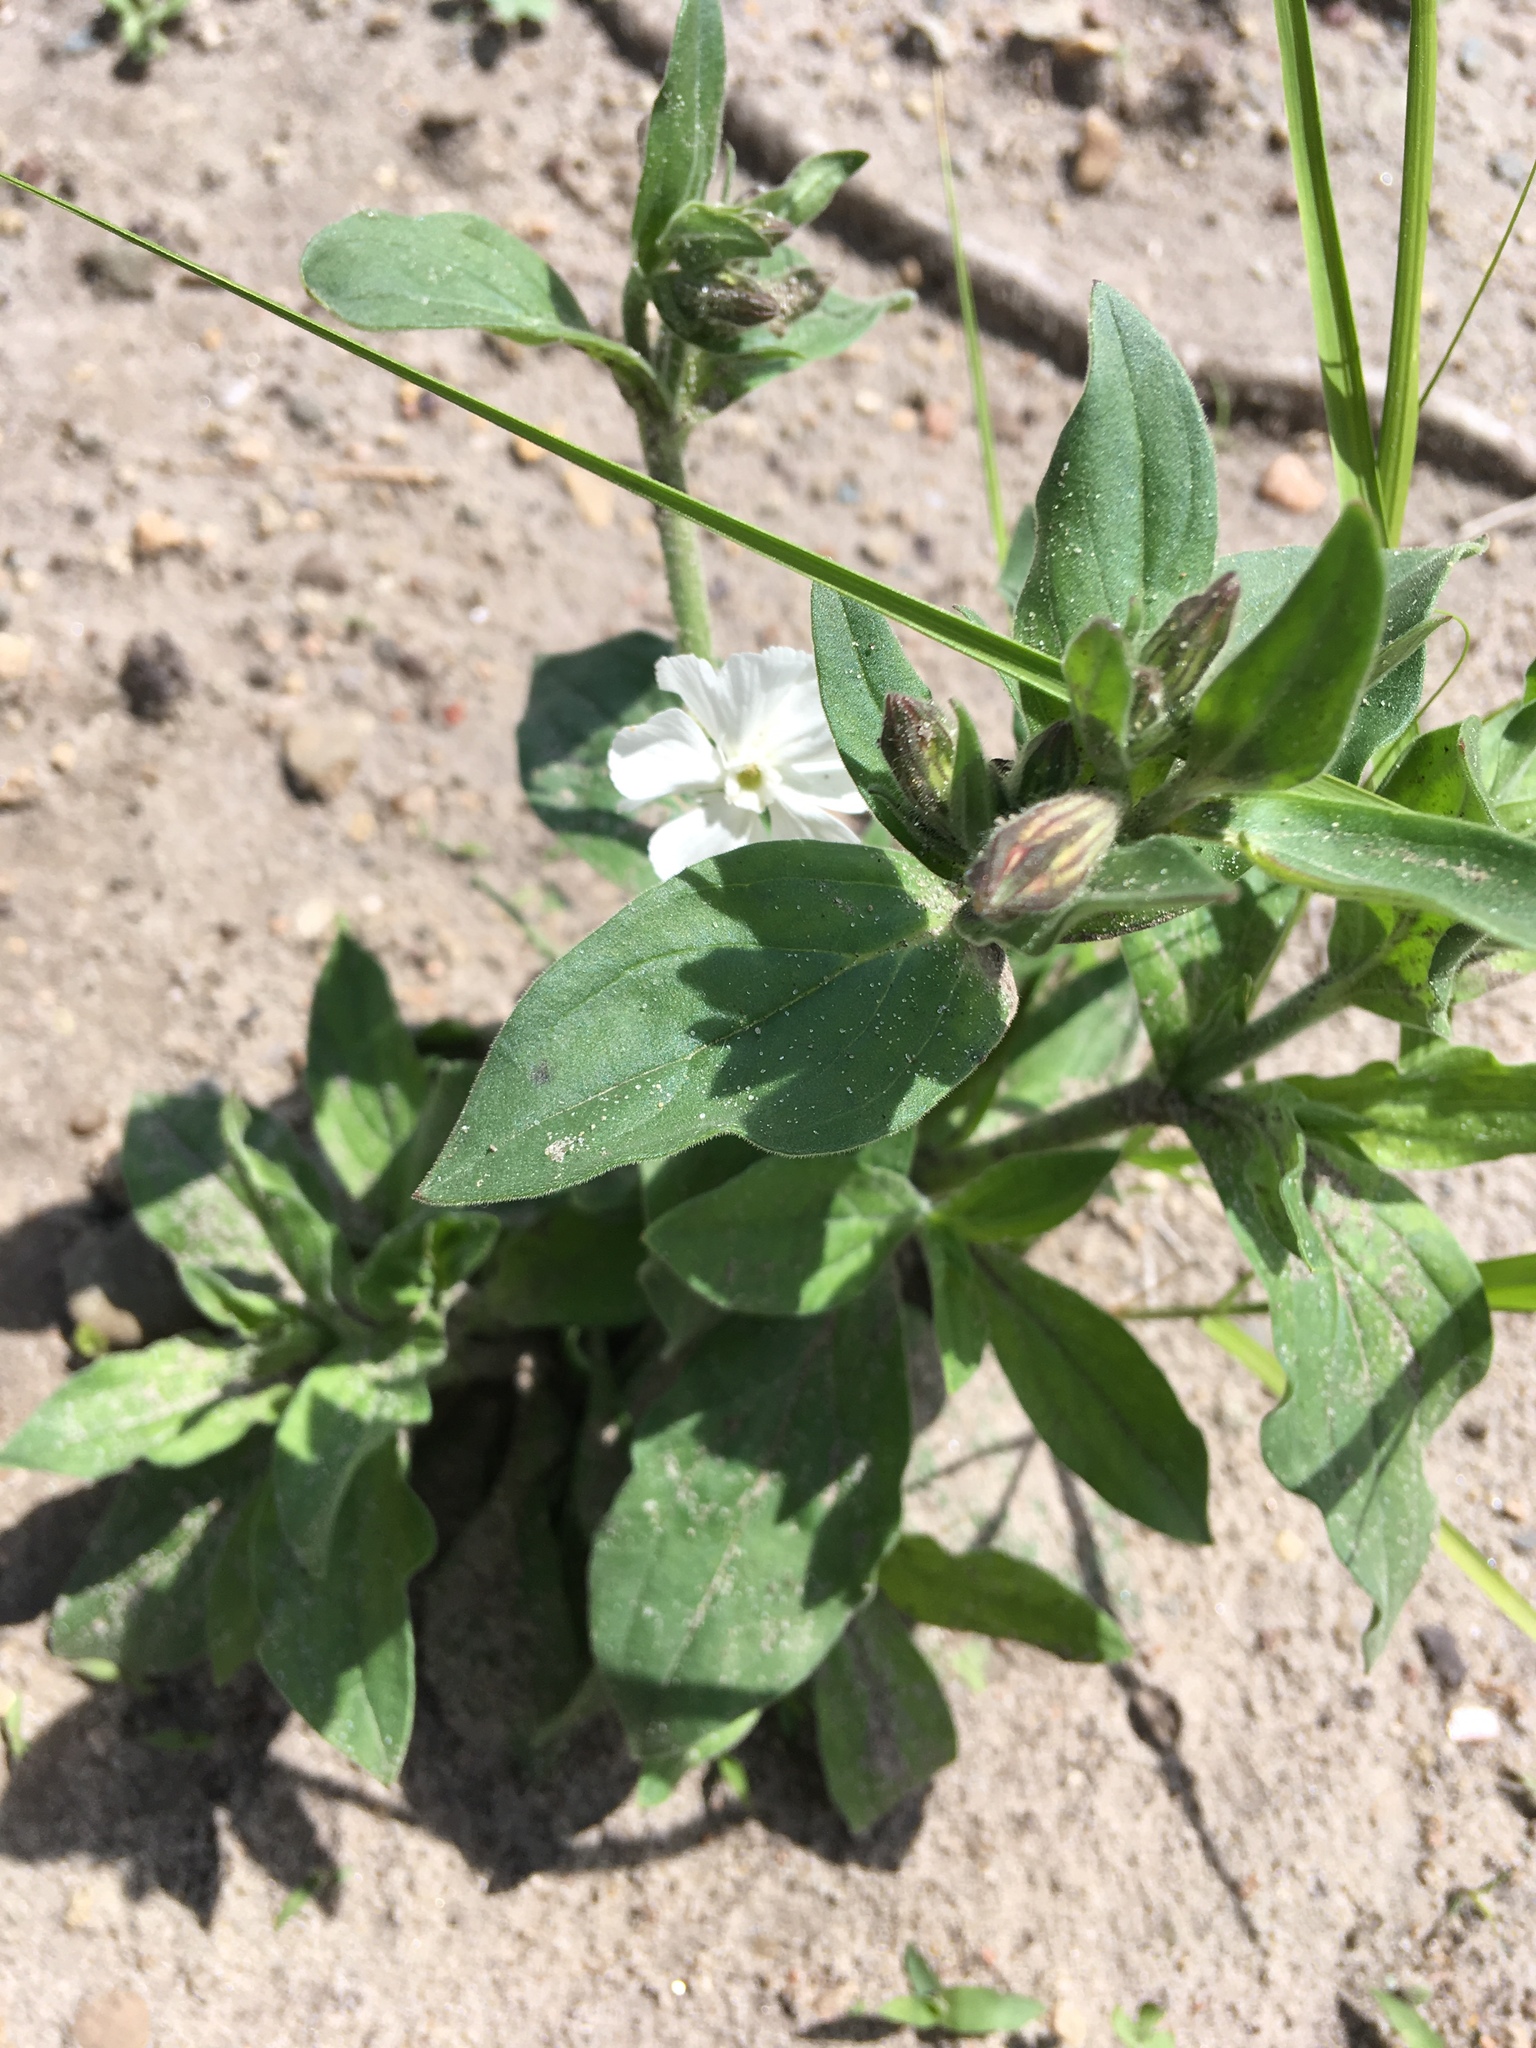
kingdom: Plantae
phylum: Tracheophyta
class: Magnoliopsida
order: Caryophyllales
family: Caryophyllaceae
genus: Silene
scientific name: Silene latifolia
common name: White campion
